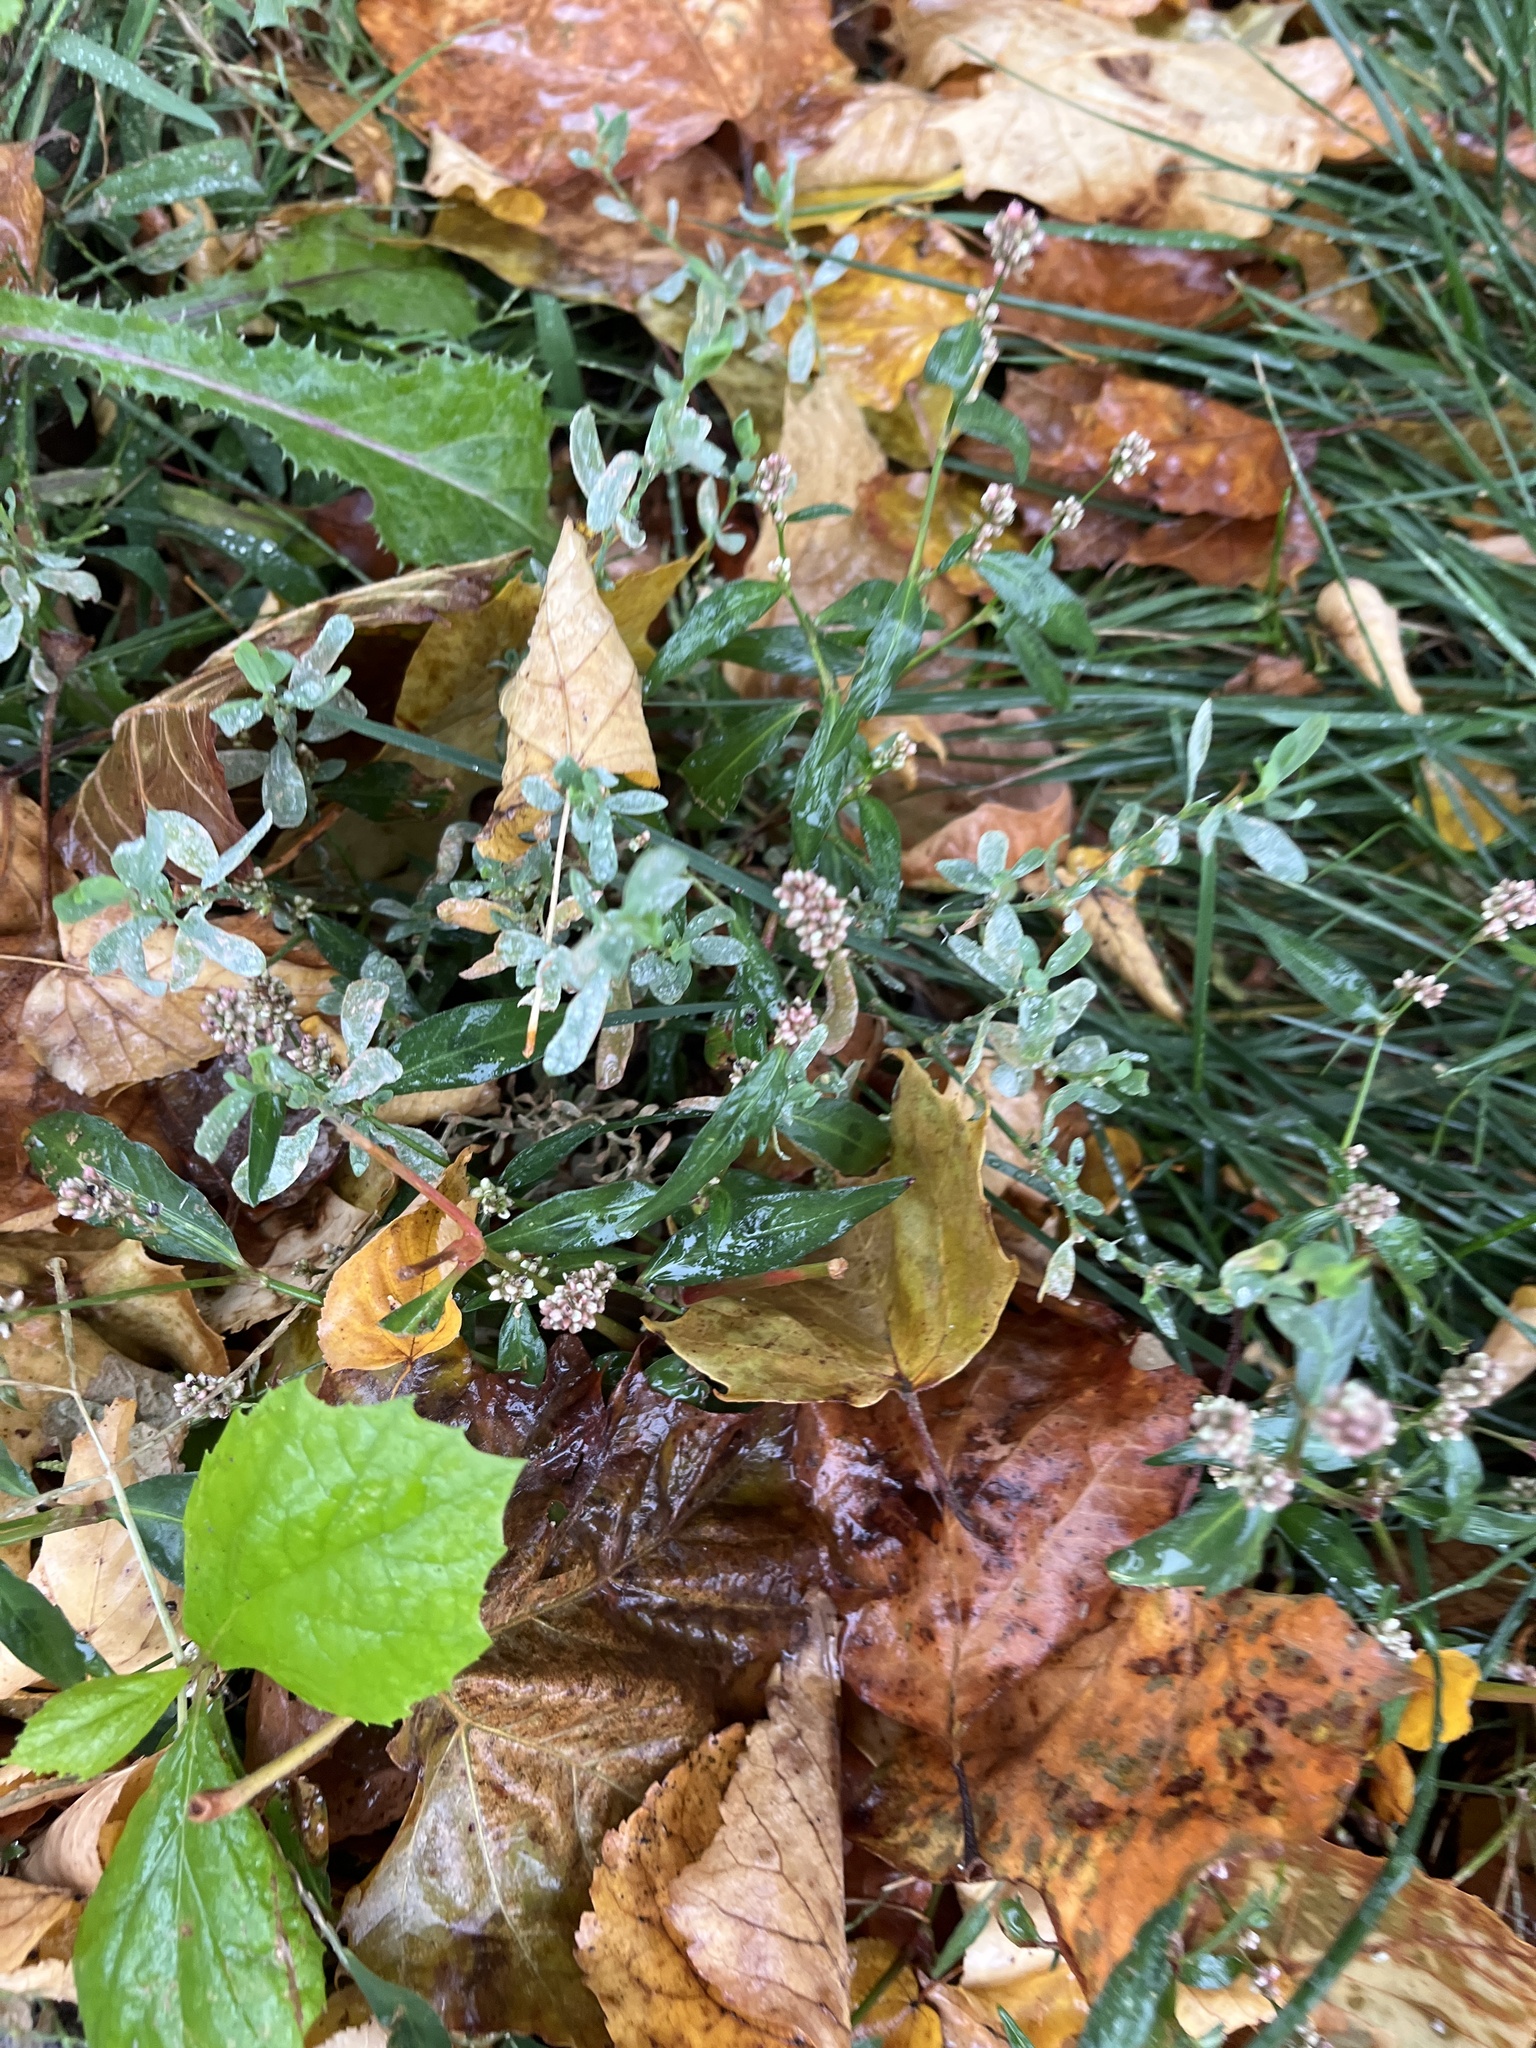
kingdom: Plantae
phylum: Tracheophyta
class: Magnoliopsida
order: Caryophyllales
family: Polygonaceae
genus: Persicaria
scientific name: Persicaria maculosa
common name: Redshank
